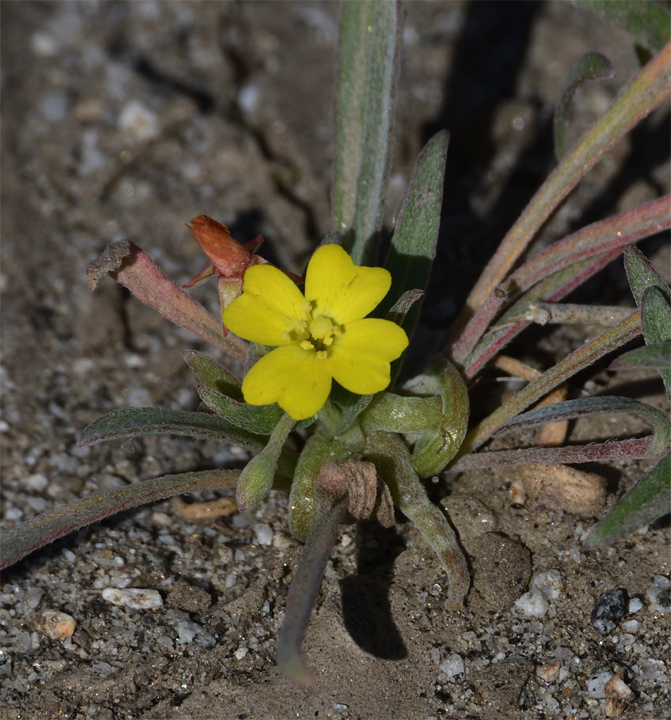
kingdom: Plantae
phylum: Tracheophyta
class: Magnoliopsida
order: Myrtales
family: Onagraceae
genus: Camissoniopsis
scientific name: Camissoniopsis pallida
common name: Paleyellow suncup
